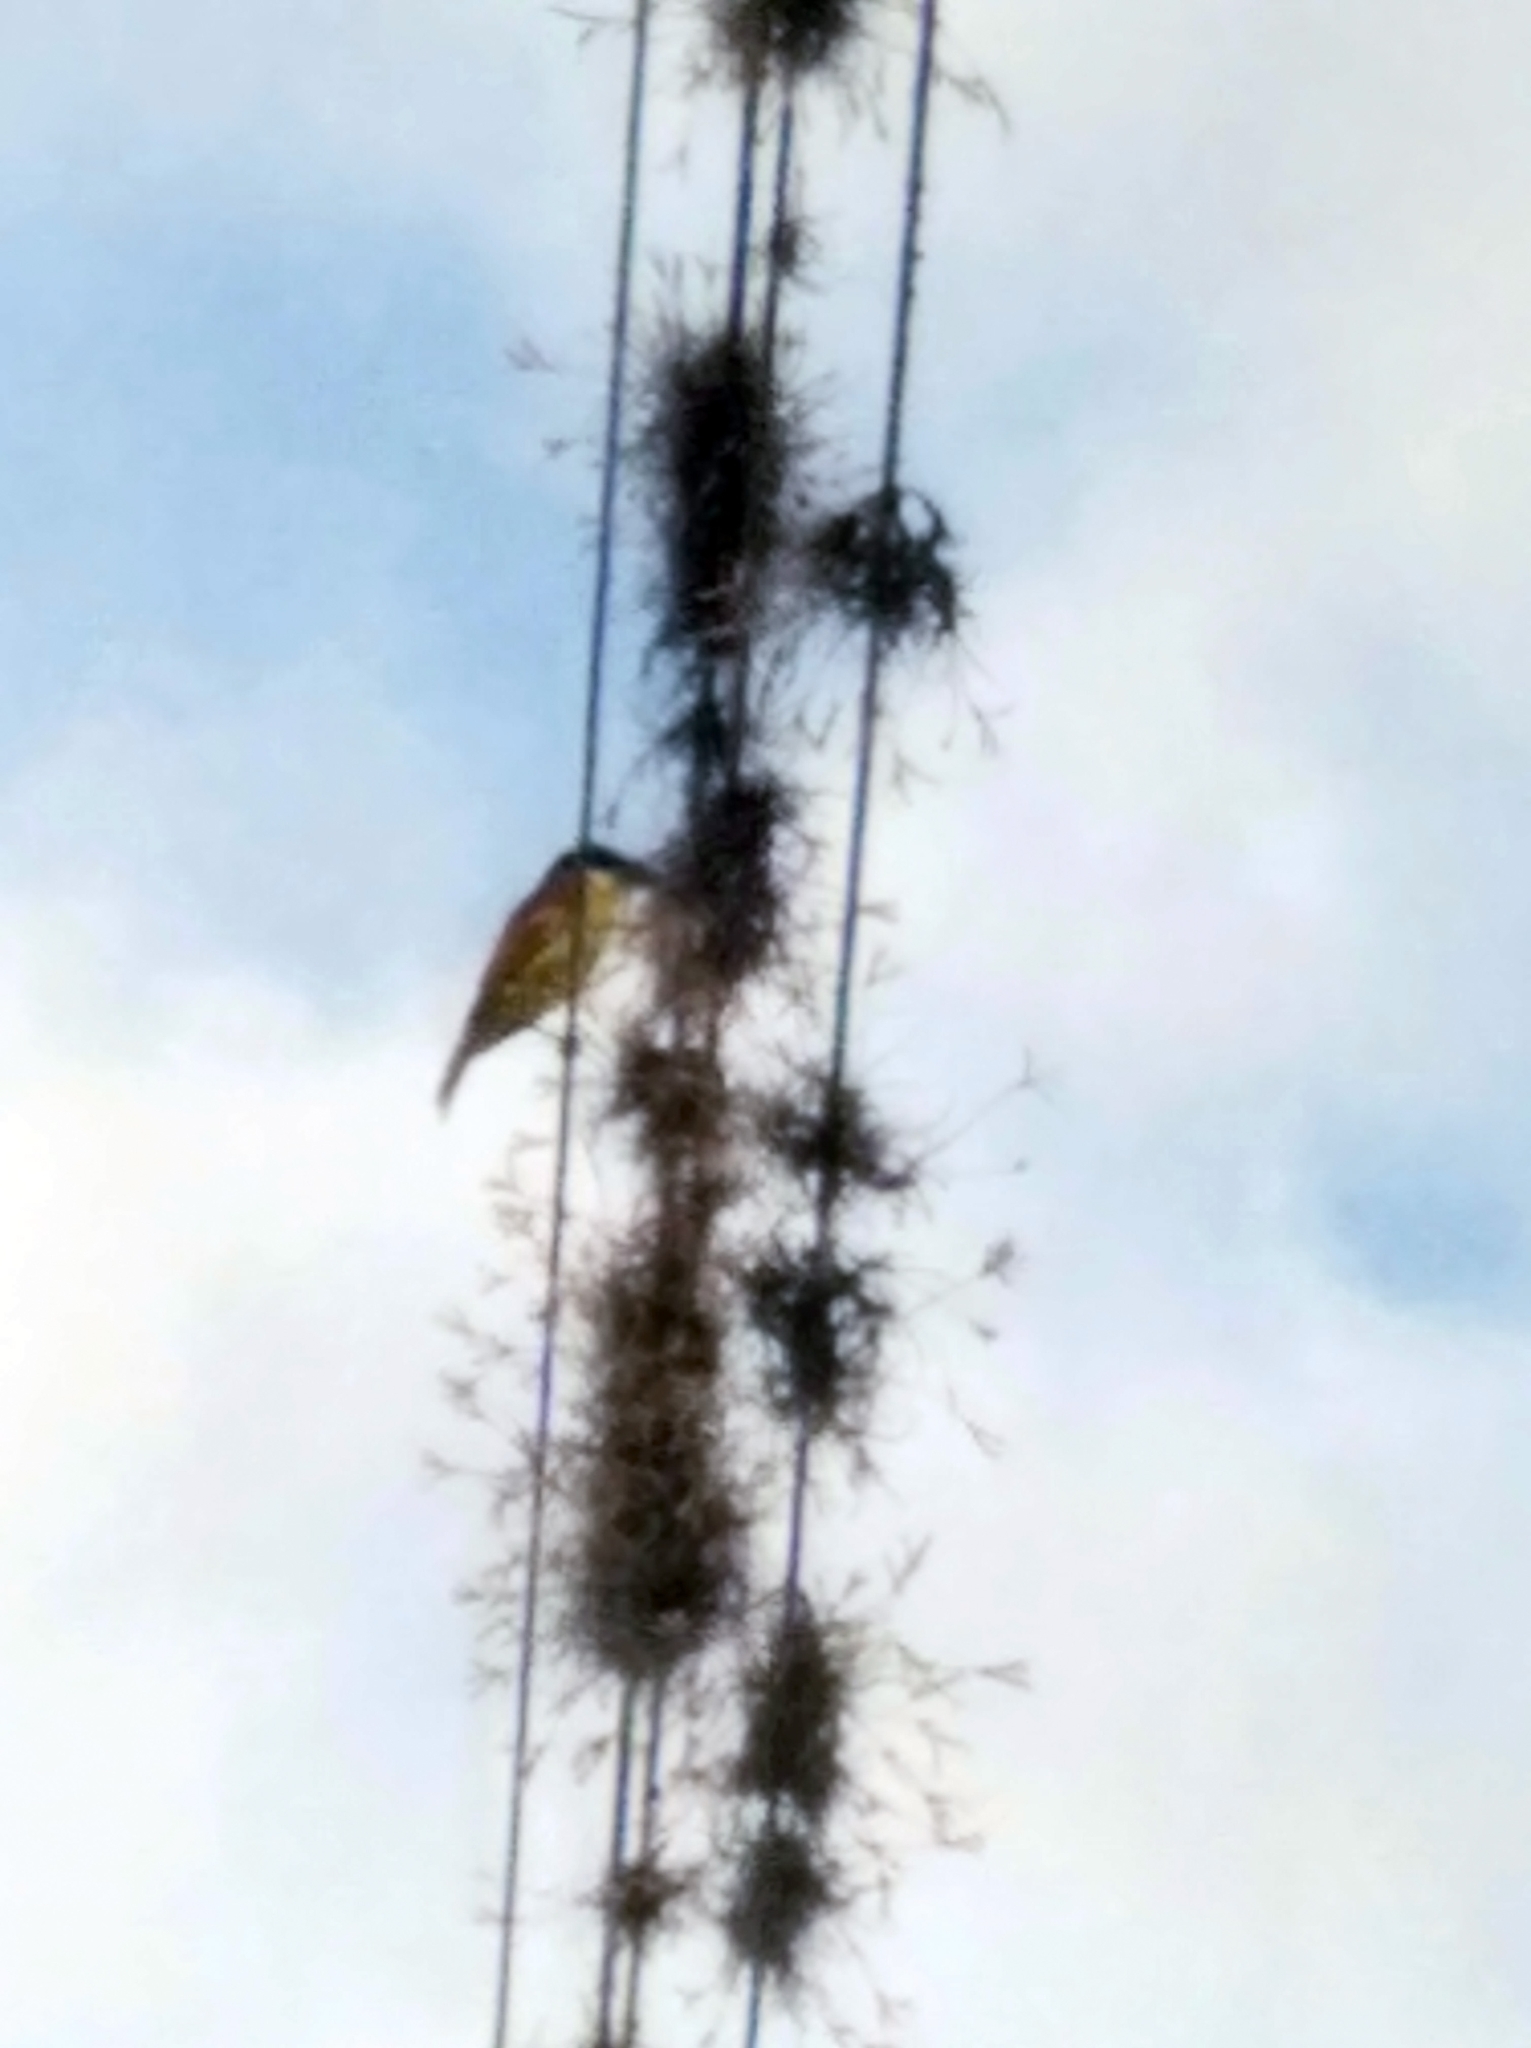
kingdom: Animalia
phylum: Chordata
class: Aves
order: Passeriformes
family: Tyrannidae
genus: Pitangus
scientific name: Pitangus sulphuratus
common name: Great kiskadee
